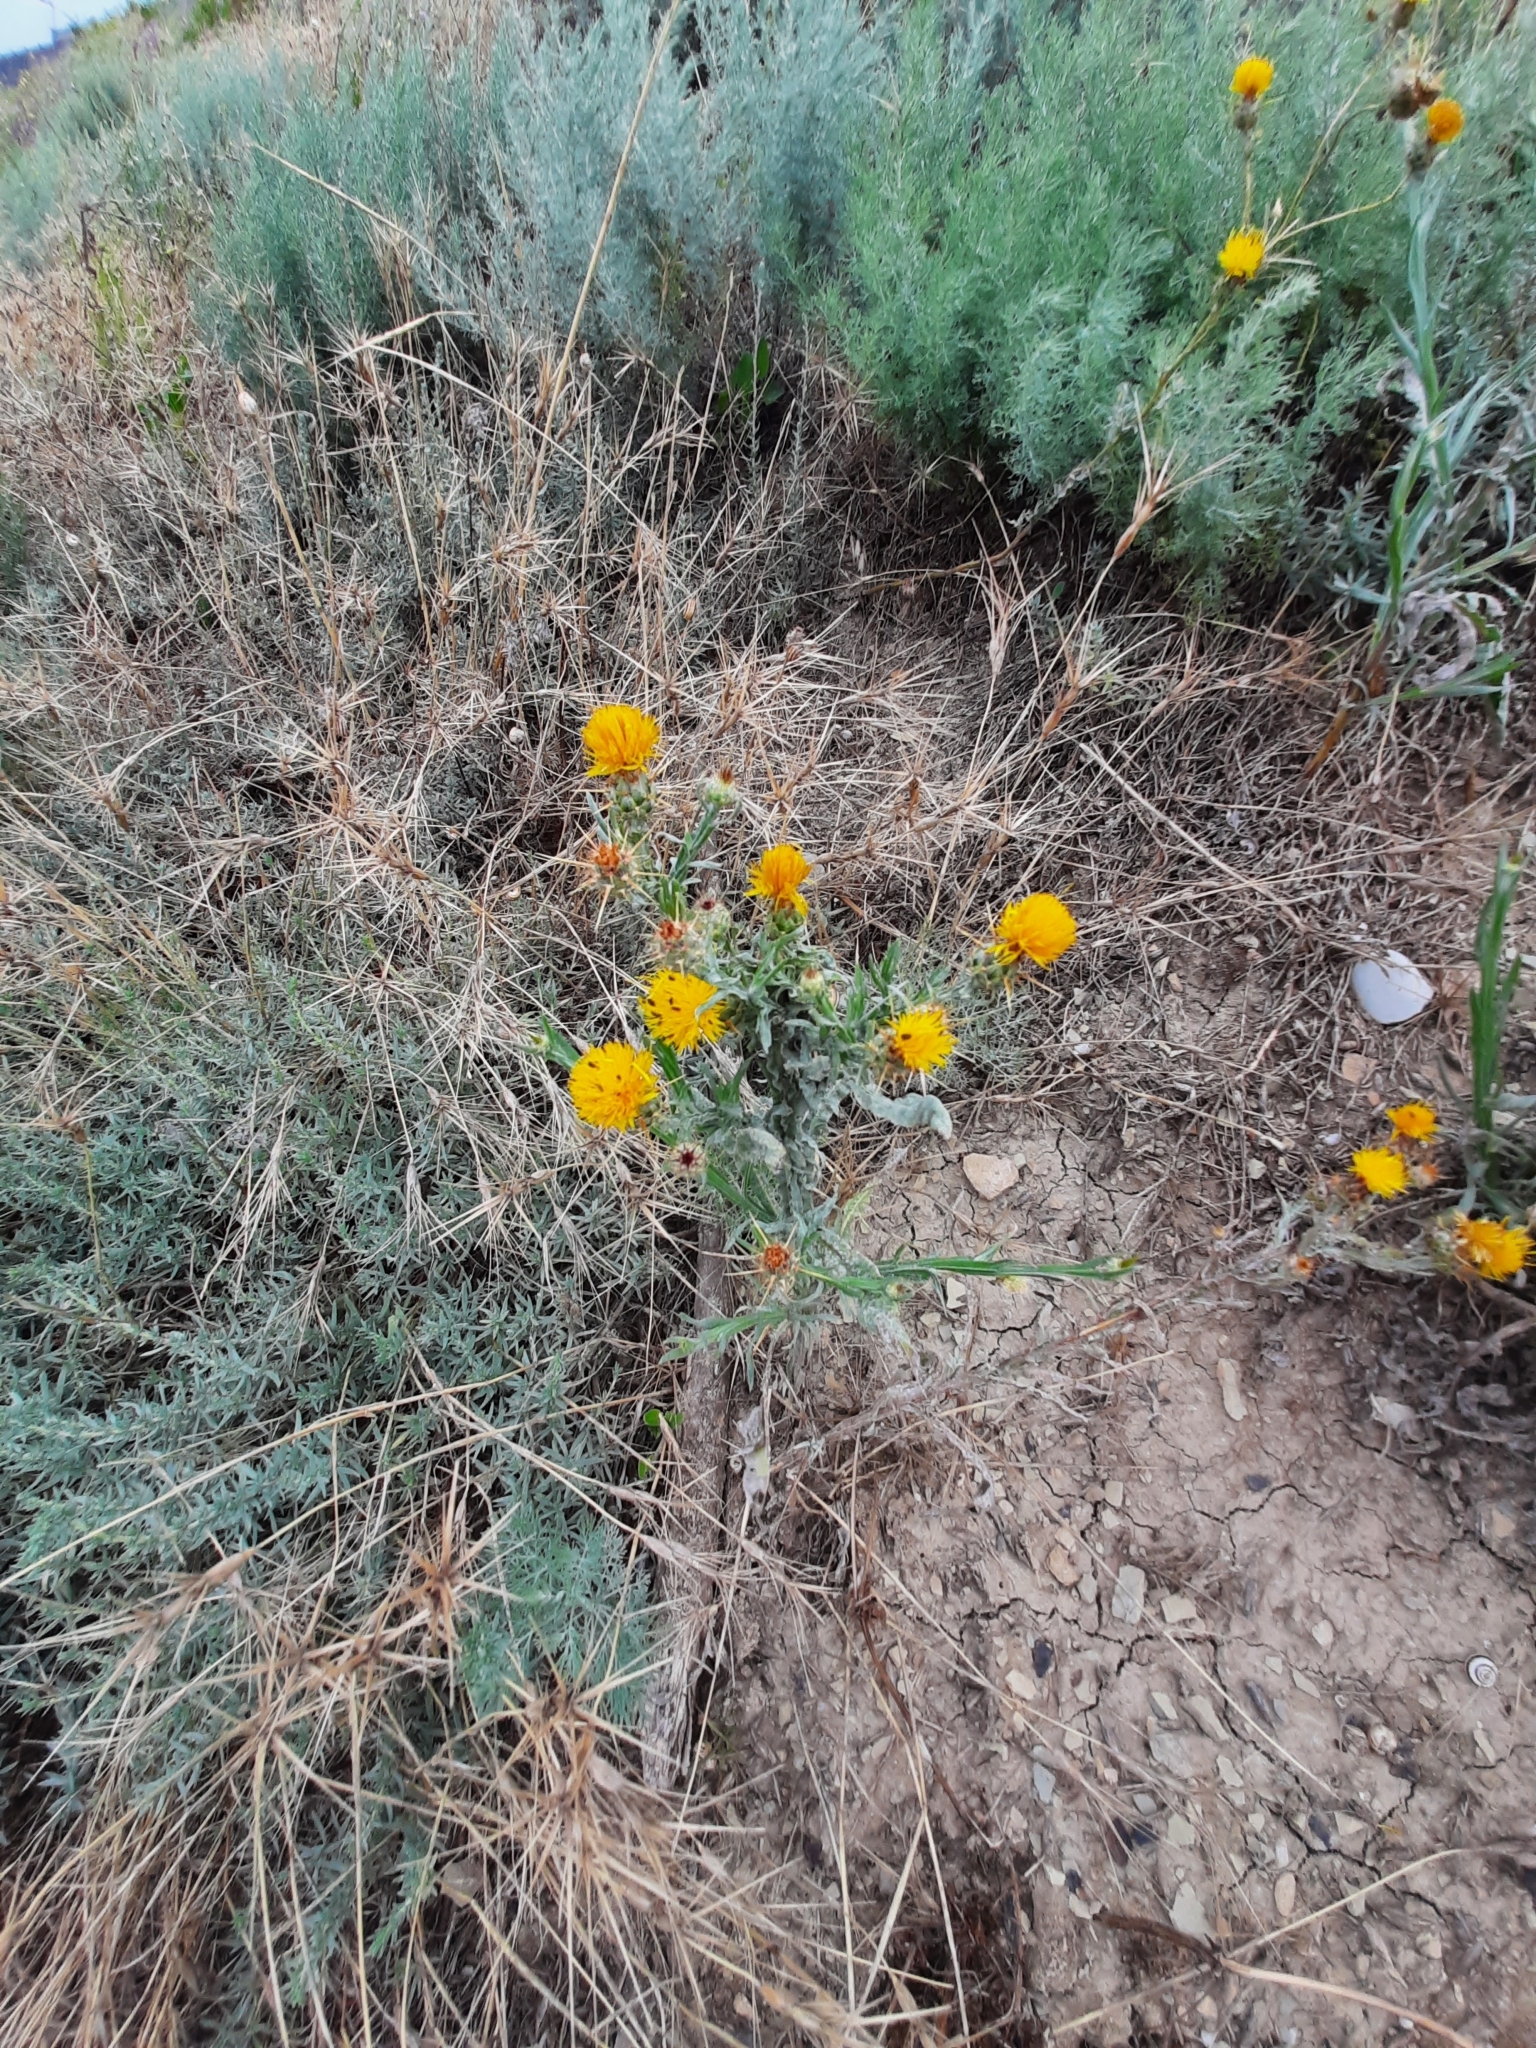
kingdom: Plantae
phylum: Tracheophyta
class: Magnoliopsida
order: Asterales
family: Asteraceae
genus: Centaurea
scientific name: Centaurea solstitialis
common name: Yellow star-thistle
